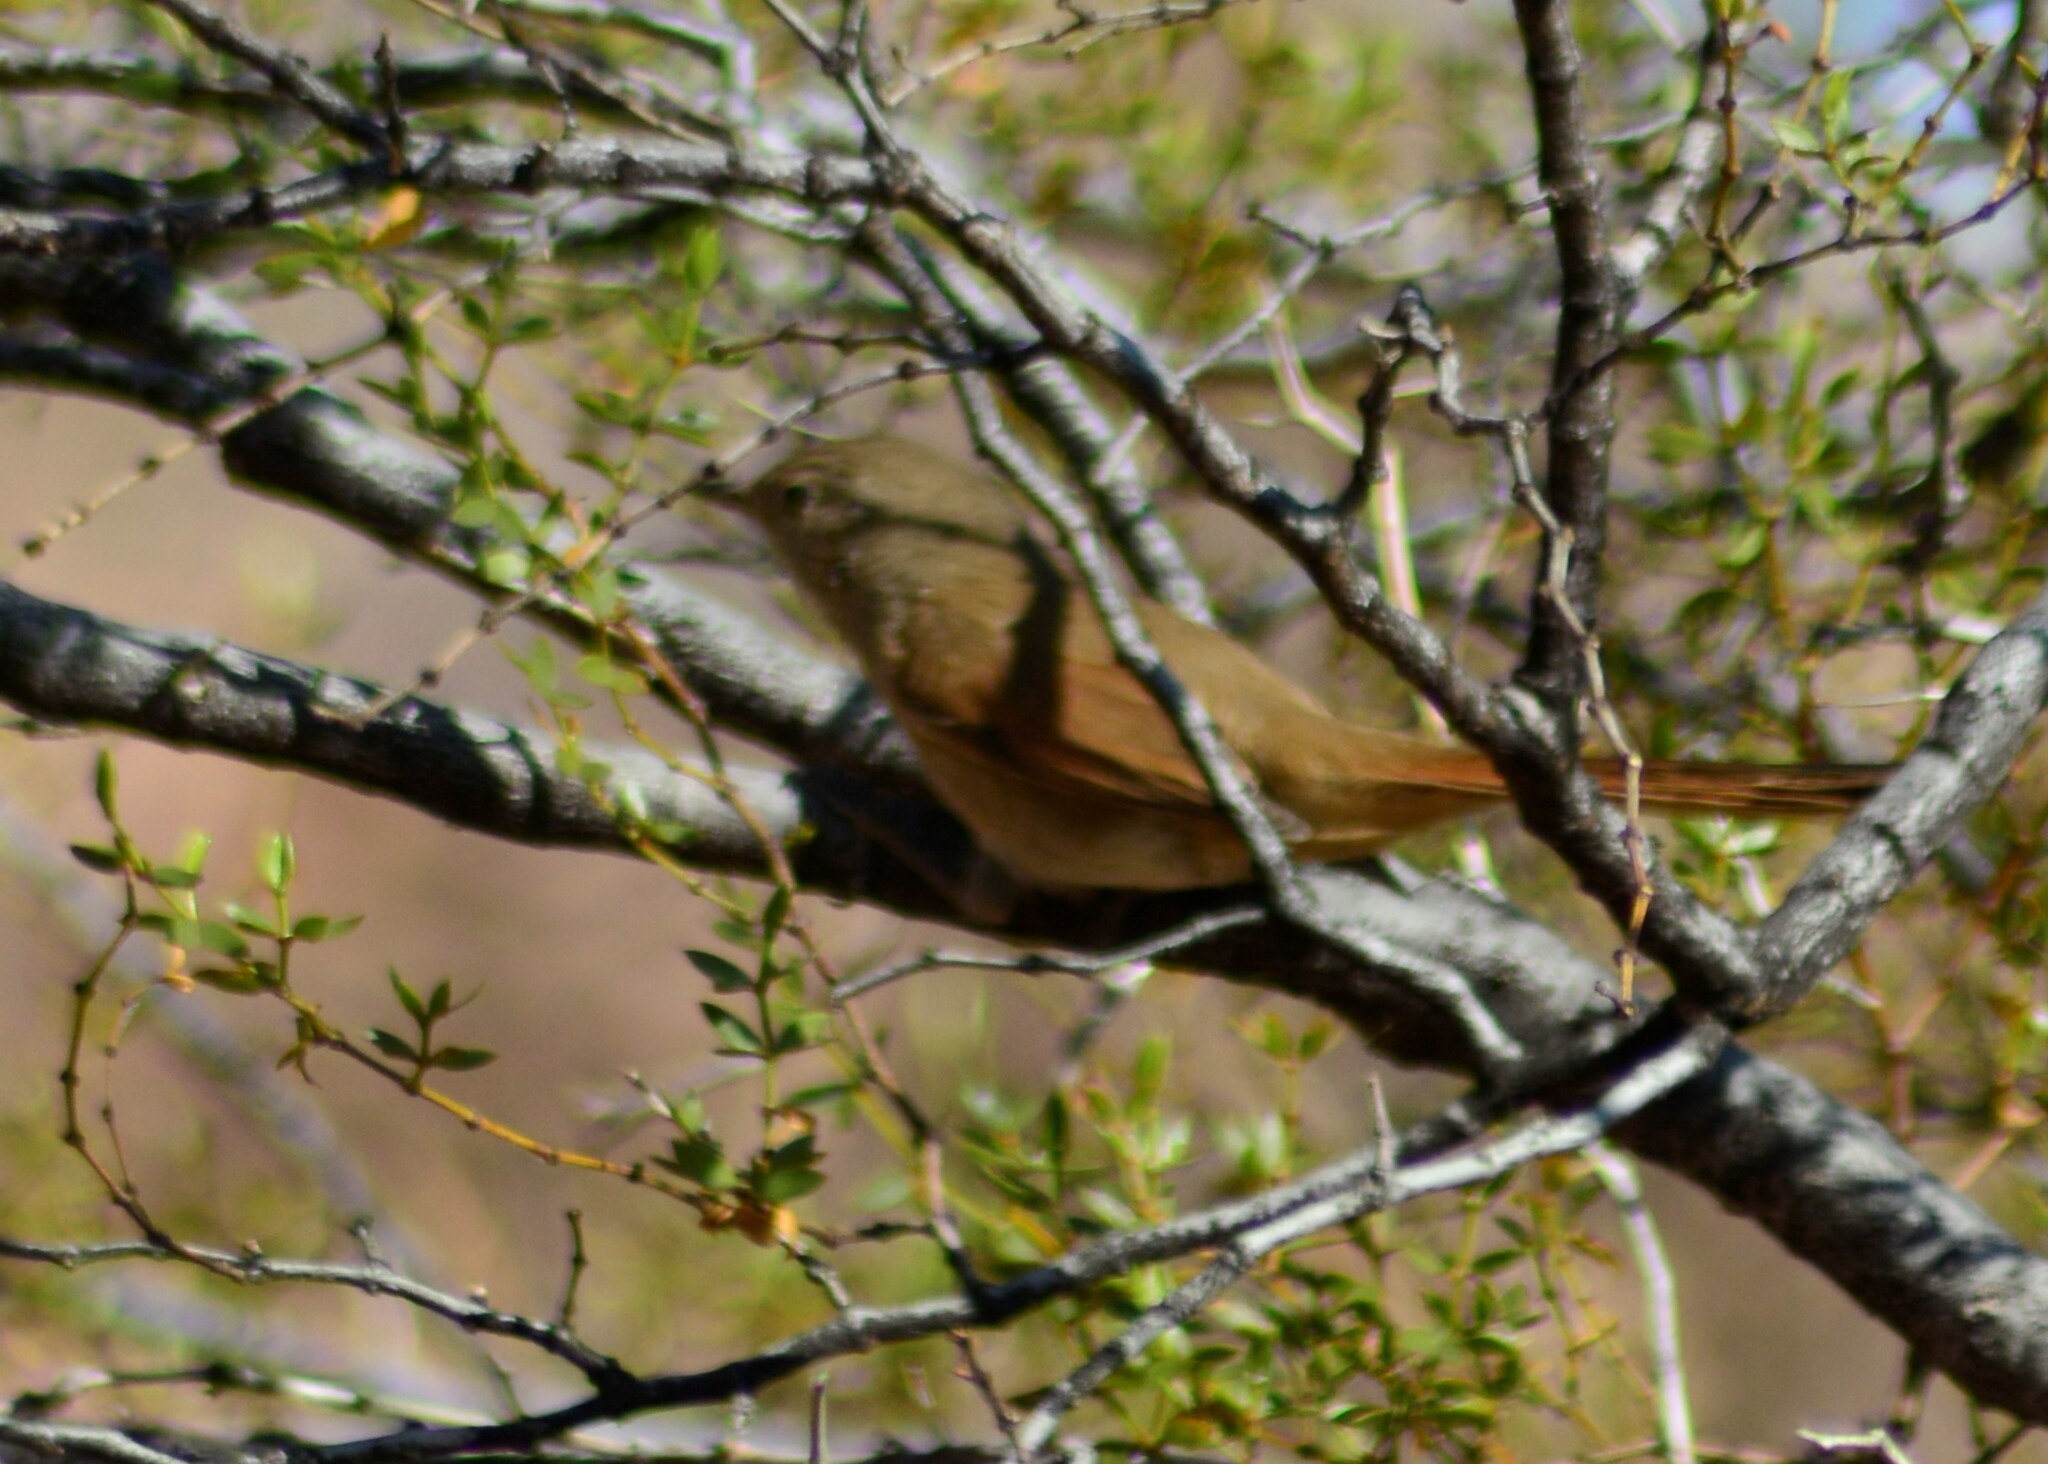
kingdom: Animalia
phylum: Chordata
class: Aves
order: Passeriformes
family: Furnariidae
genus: Asthenes
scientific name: Asthenes pyrrholeuca
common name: Sharp-billed canastero
